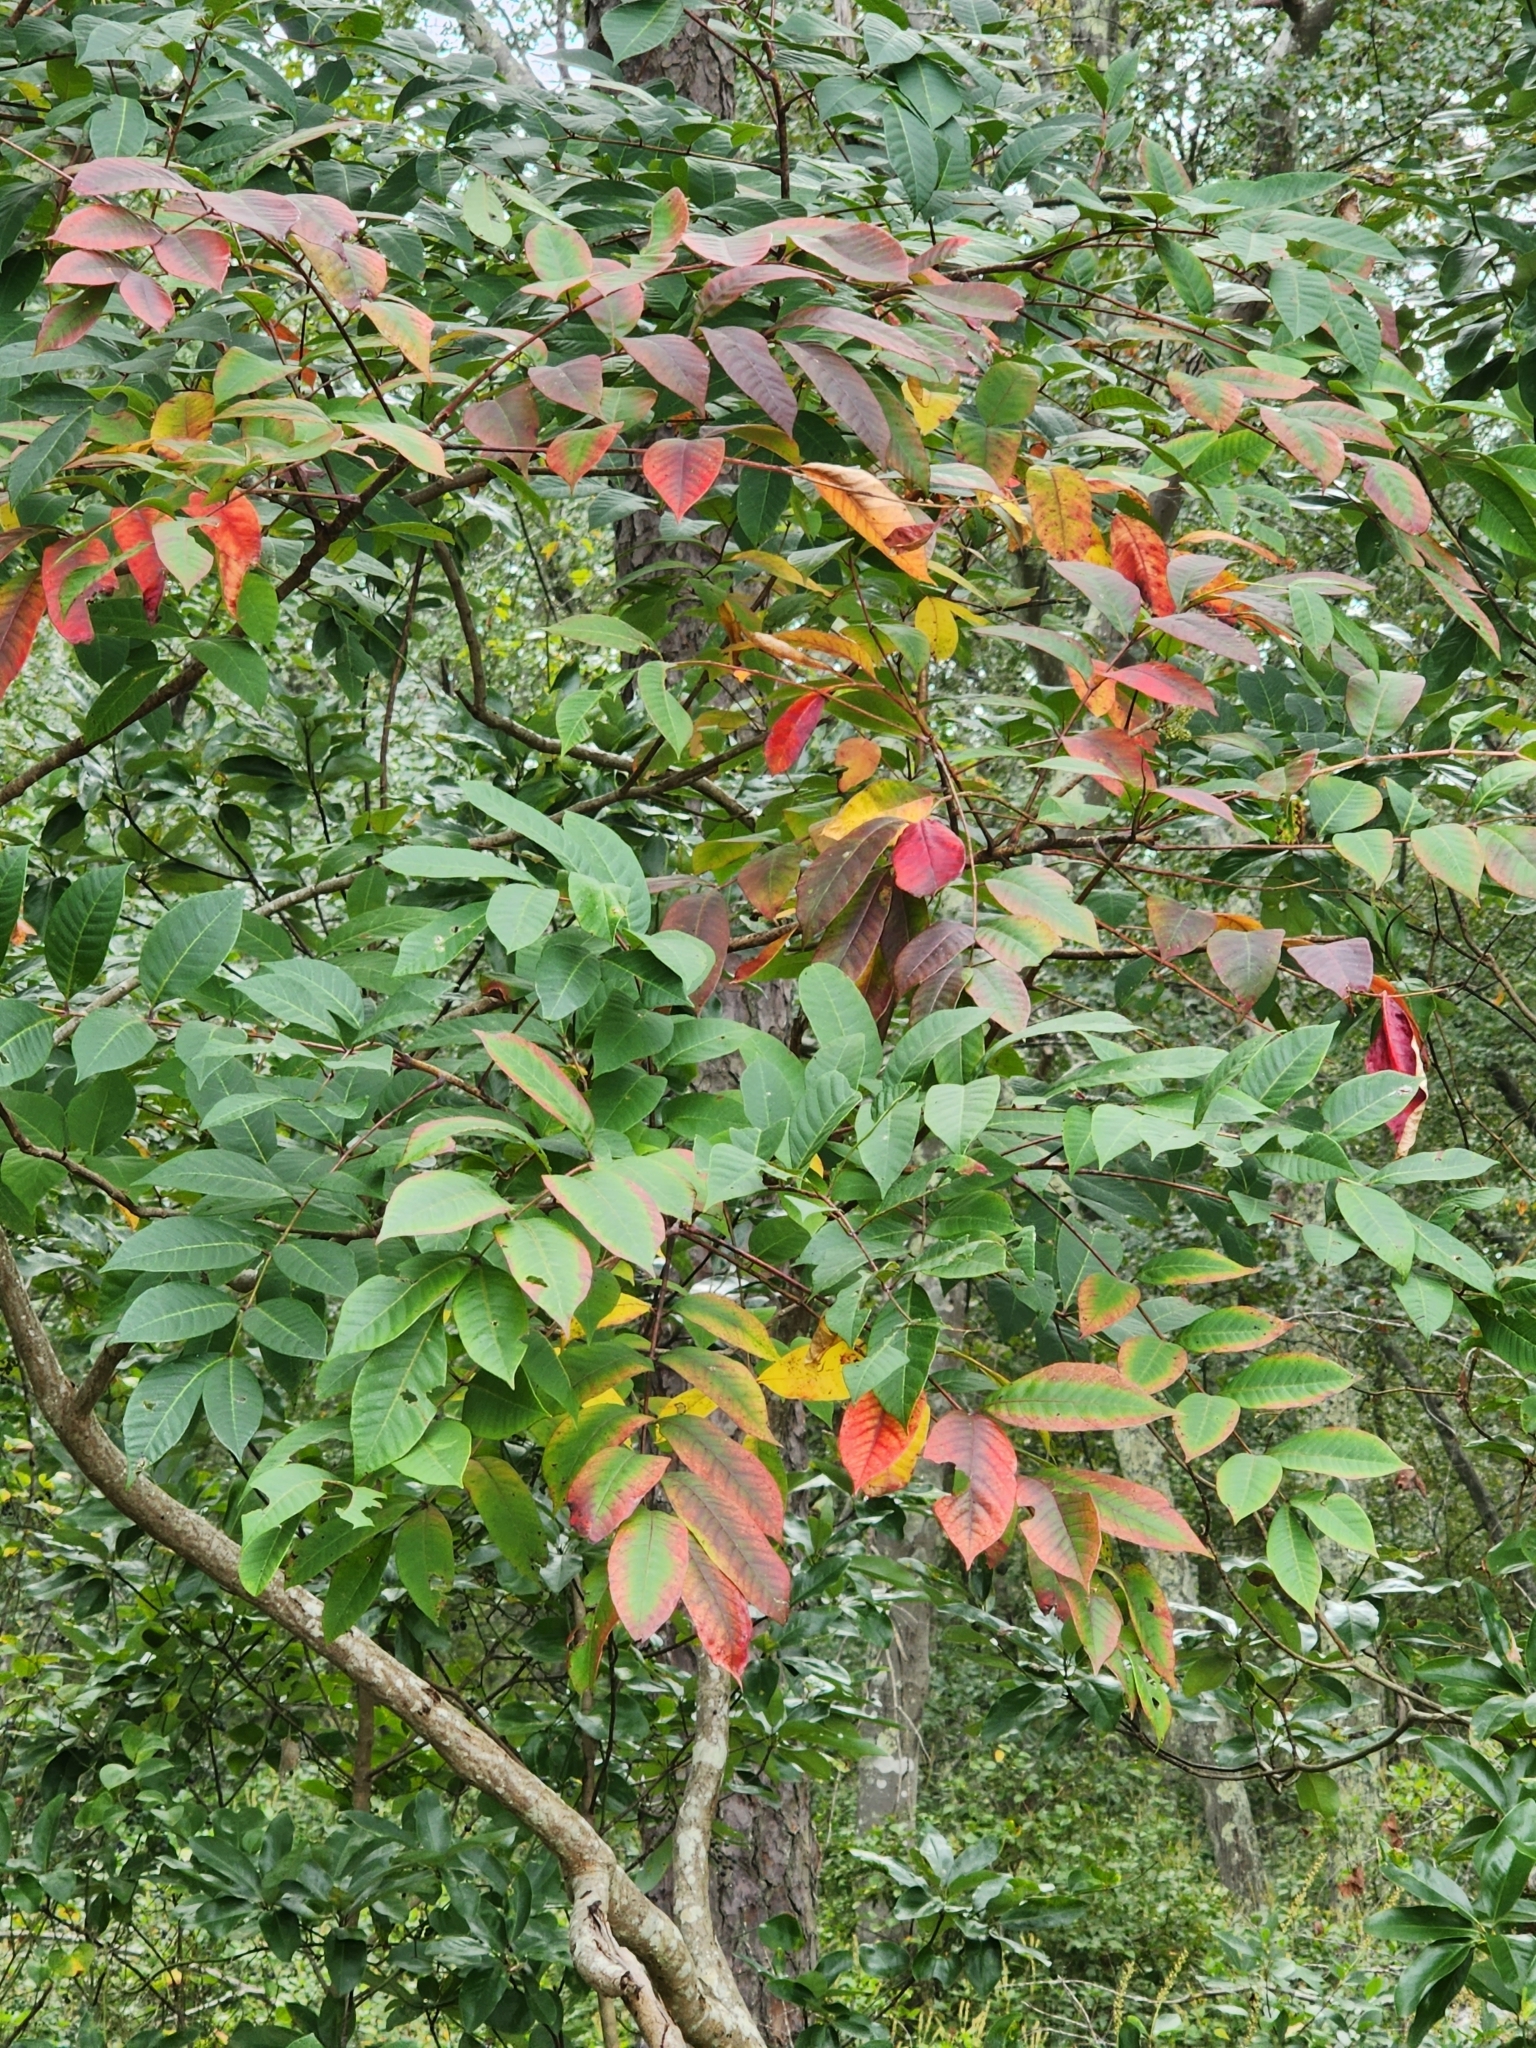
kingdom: Plantae
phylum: Tracheophyta
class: Magnoliopsida
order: Sapindales
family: Anacardiaceae
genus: Toxicodendron
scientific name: Toxicodendron vernix
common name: Poison sumac
